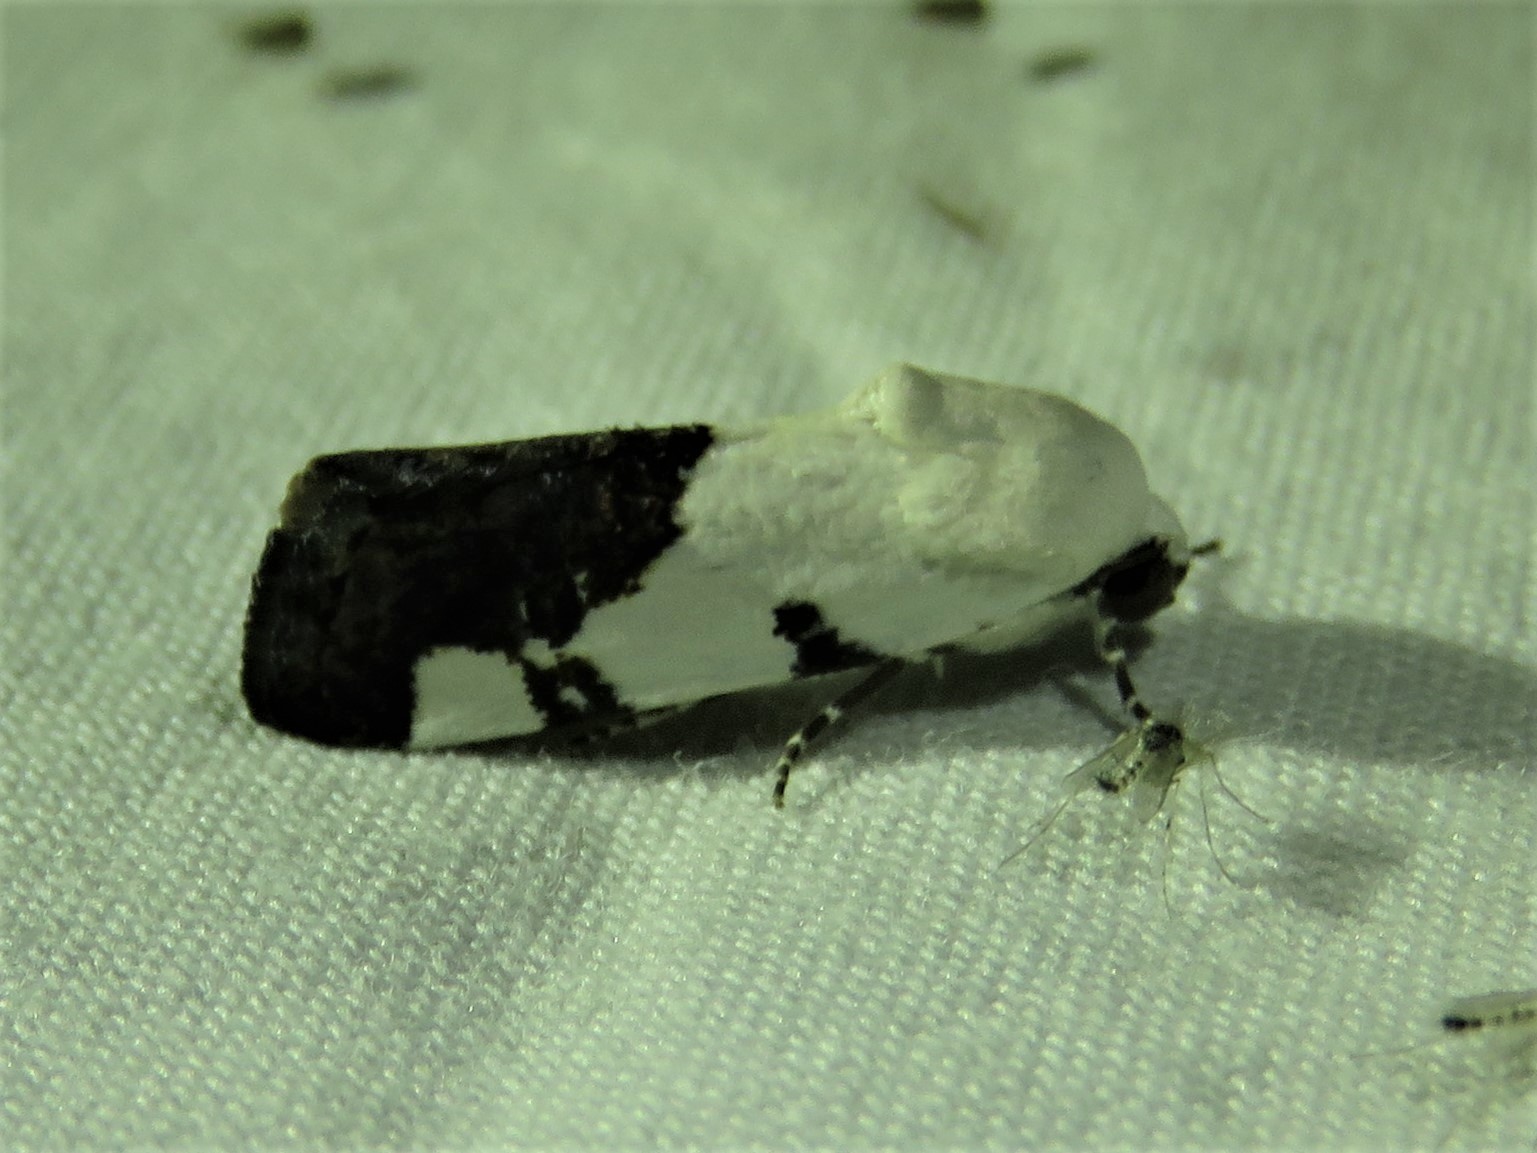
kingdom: Animalia
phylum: Arthropoda
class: Insecta
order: Lepidoptera
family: Noctuidae
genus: Acontia
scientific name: Acontia quadriplaga
